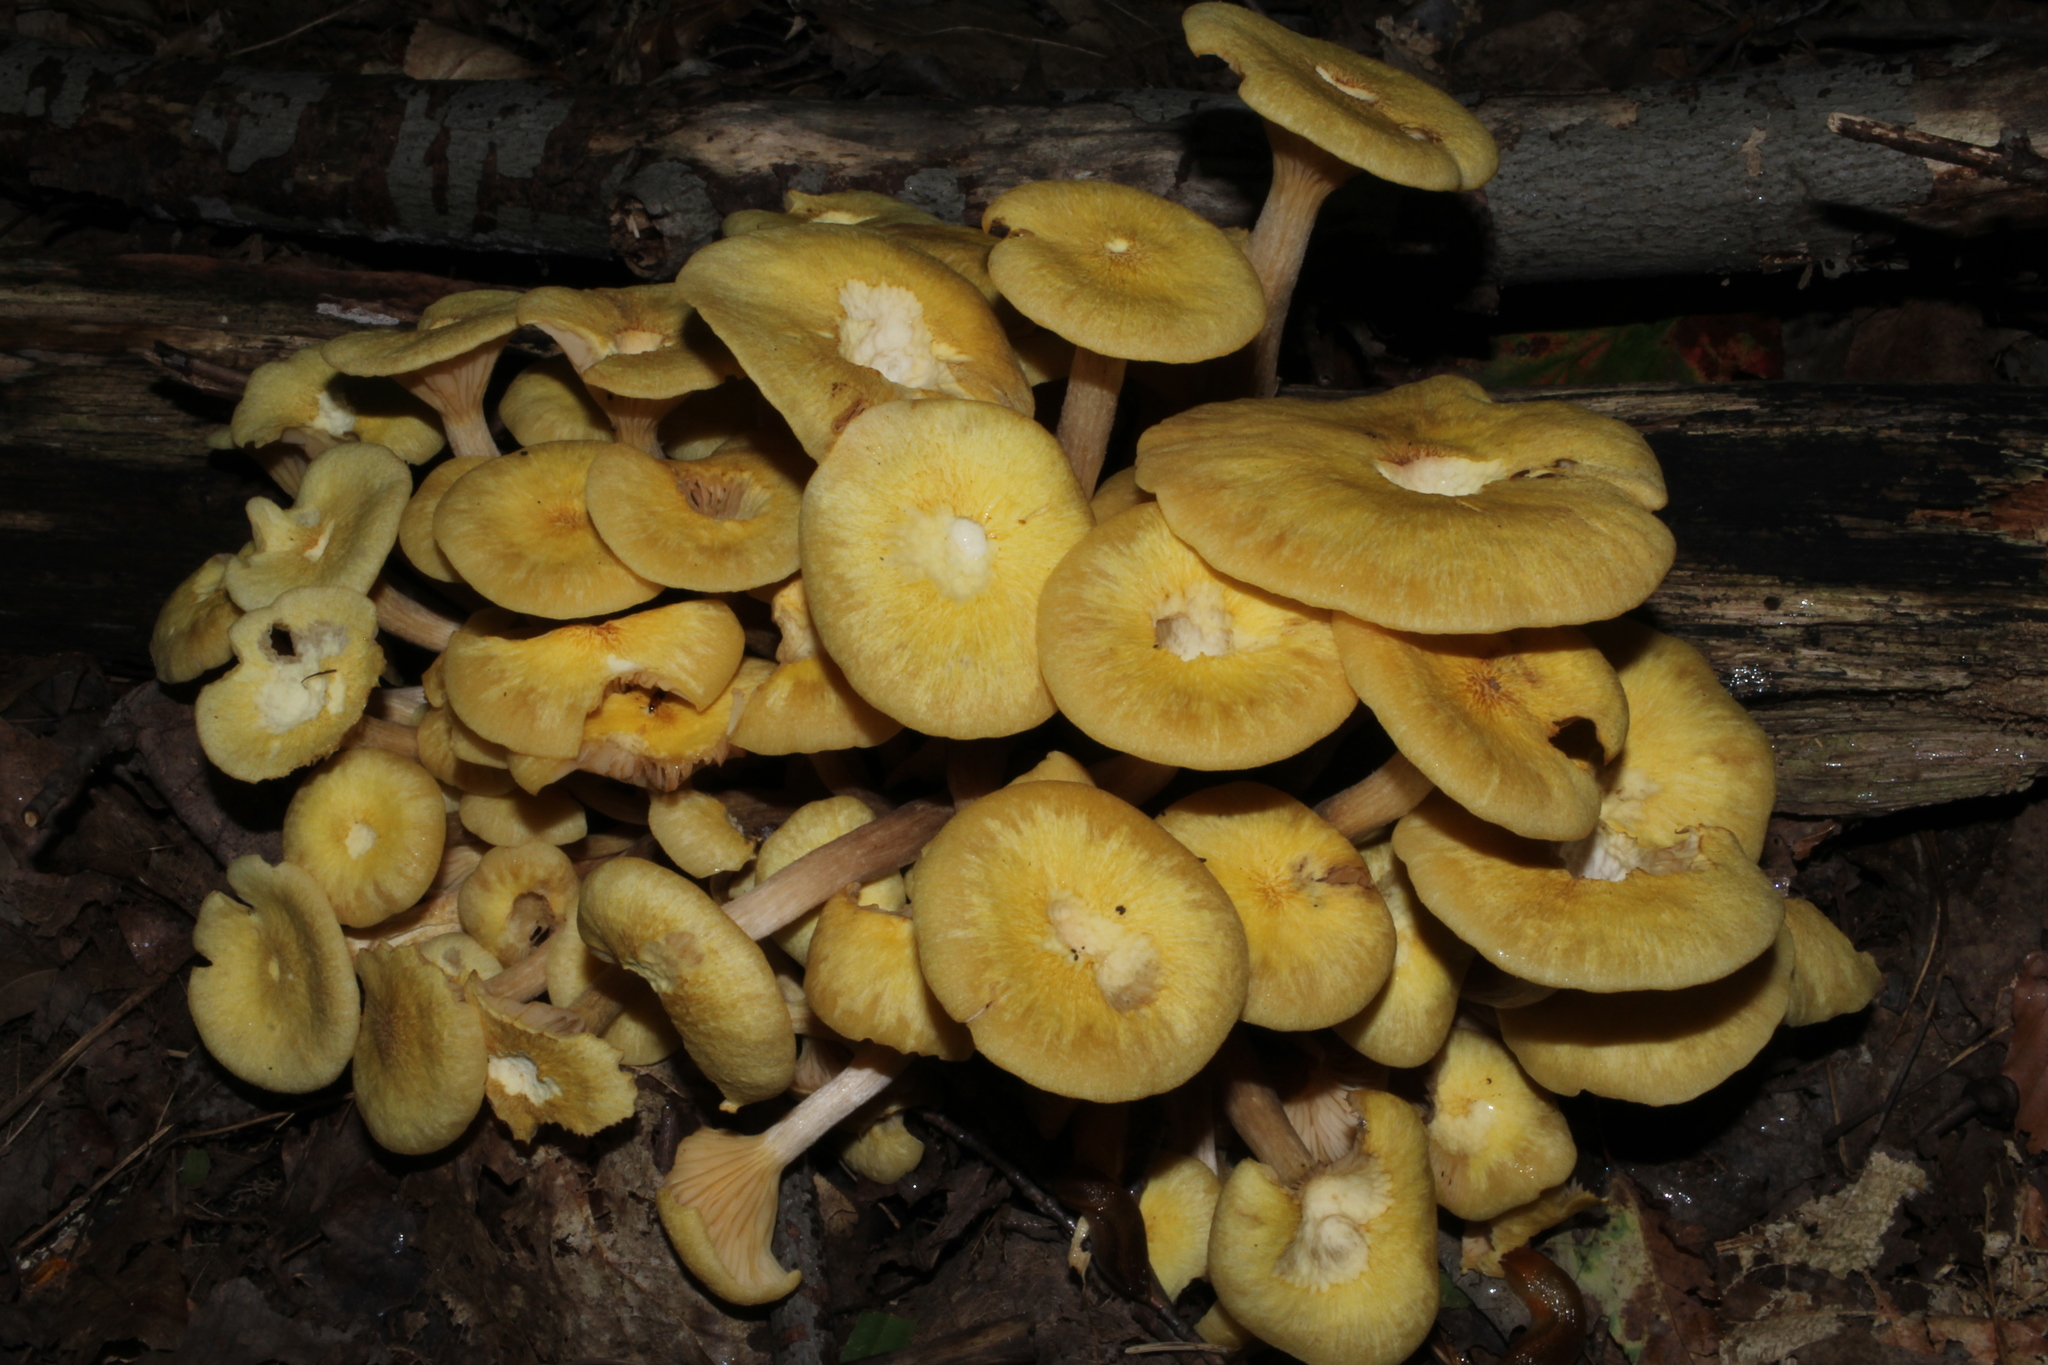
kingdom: Fungi
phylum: Basidiomycota
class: Agaricomycetes
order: Agaricales
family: Physalacriaceae
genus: Desarmillaria
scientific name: Desarmillaria caespitosa
